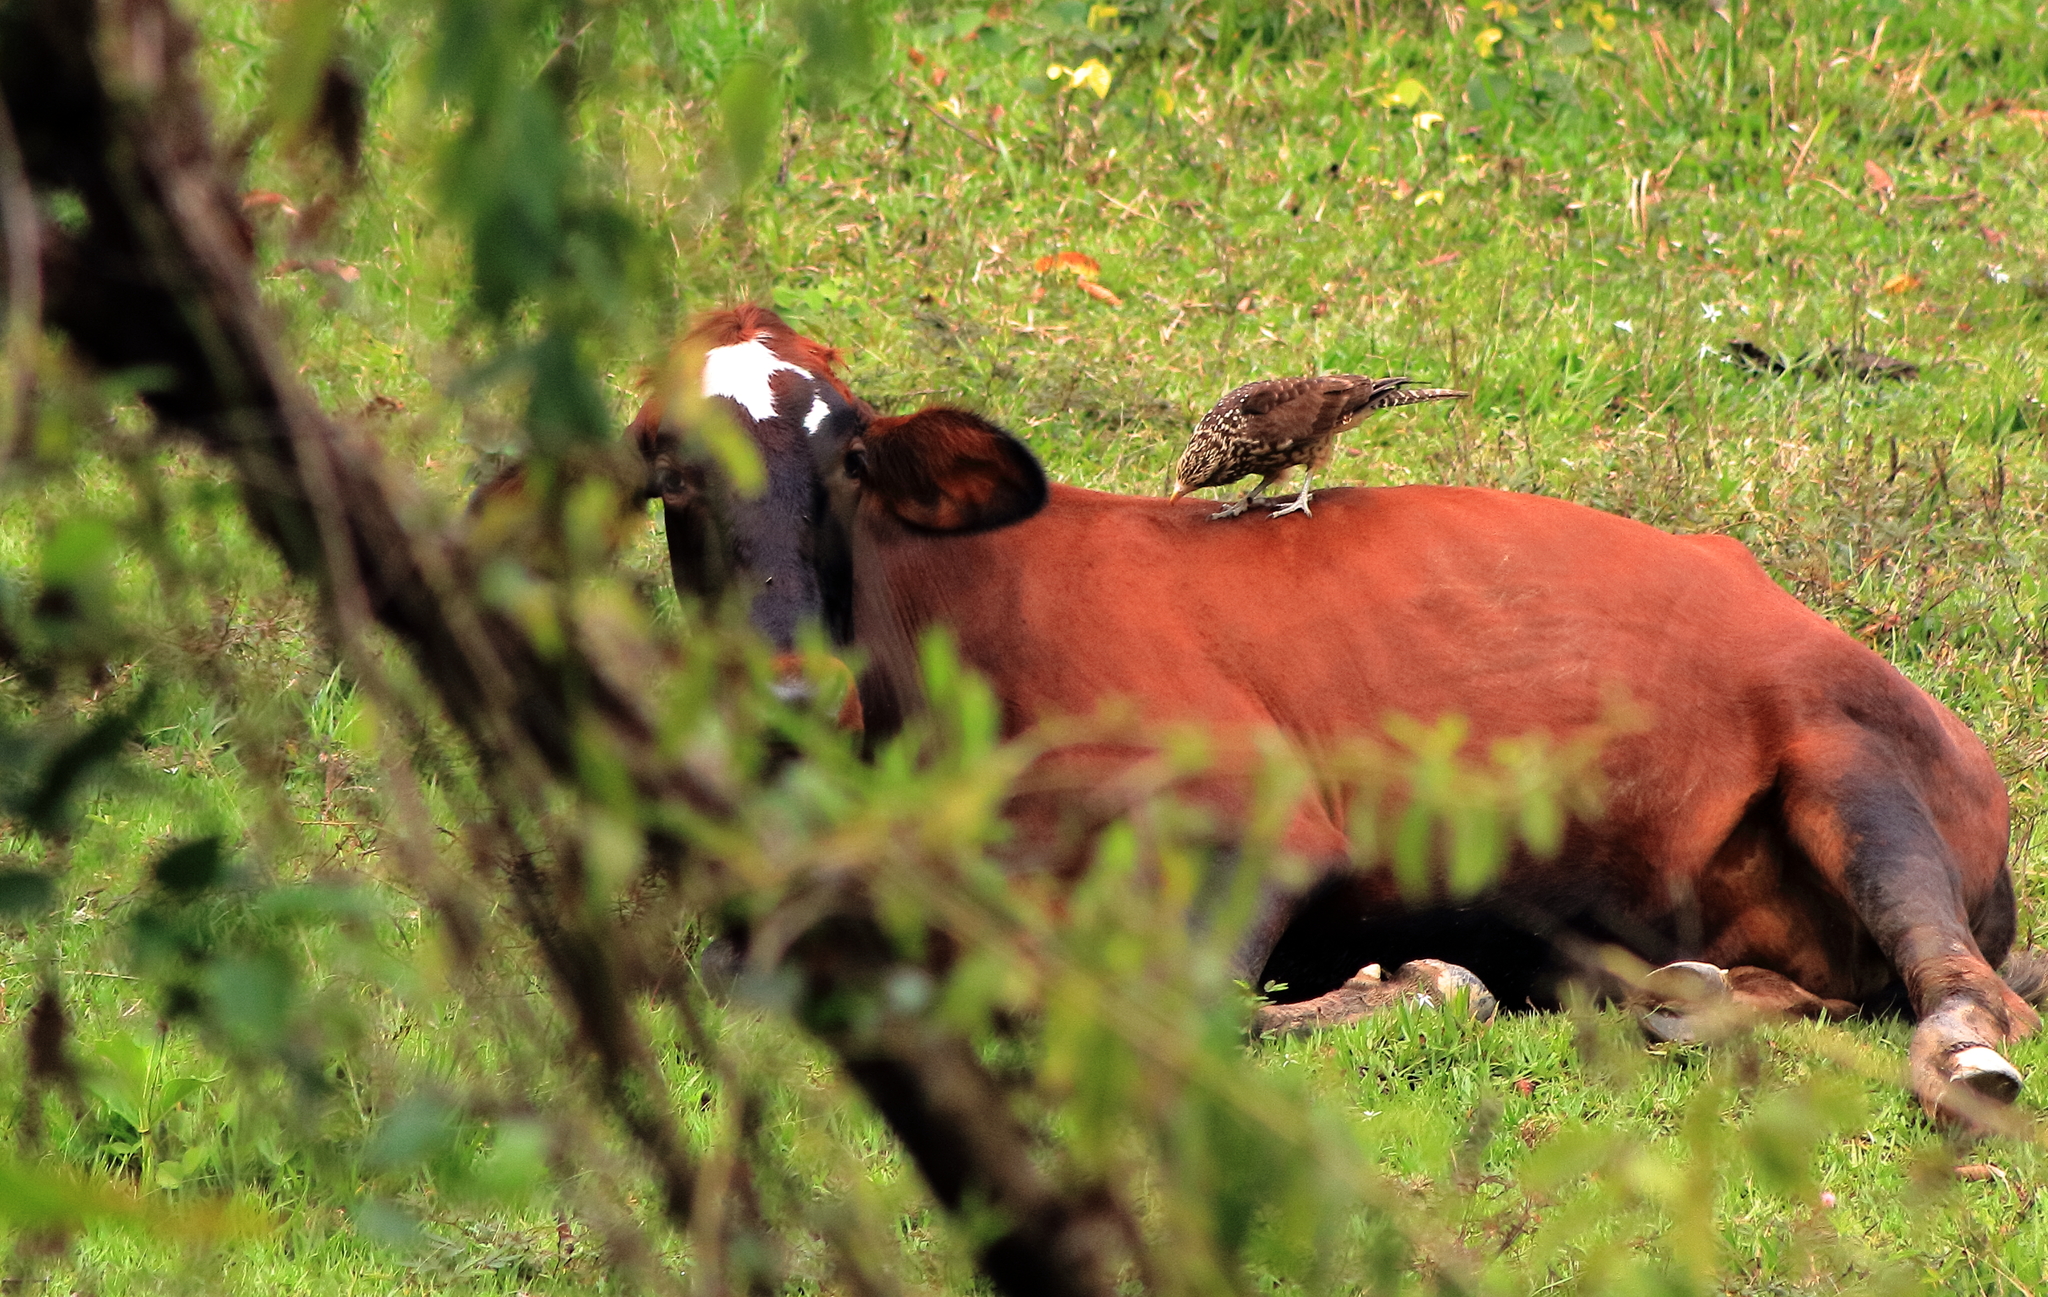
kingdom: Animalia
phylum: Chordata
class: Aves
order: Falconiformes
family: Falconidae
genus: Daptrius
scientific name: Daptrius
